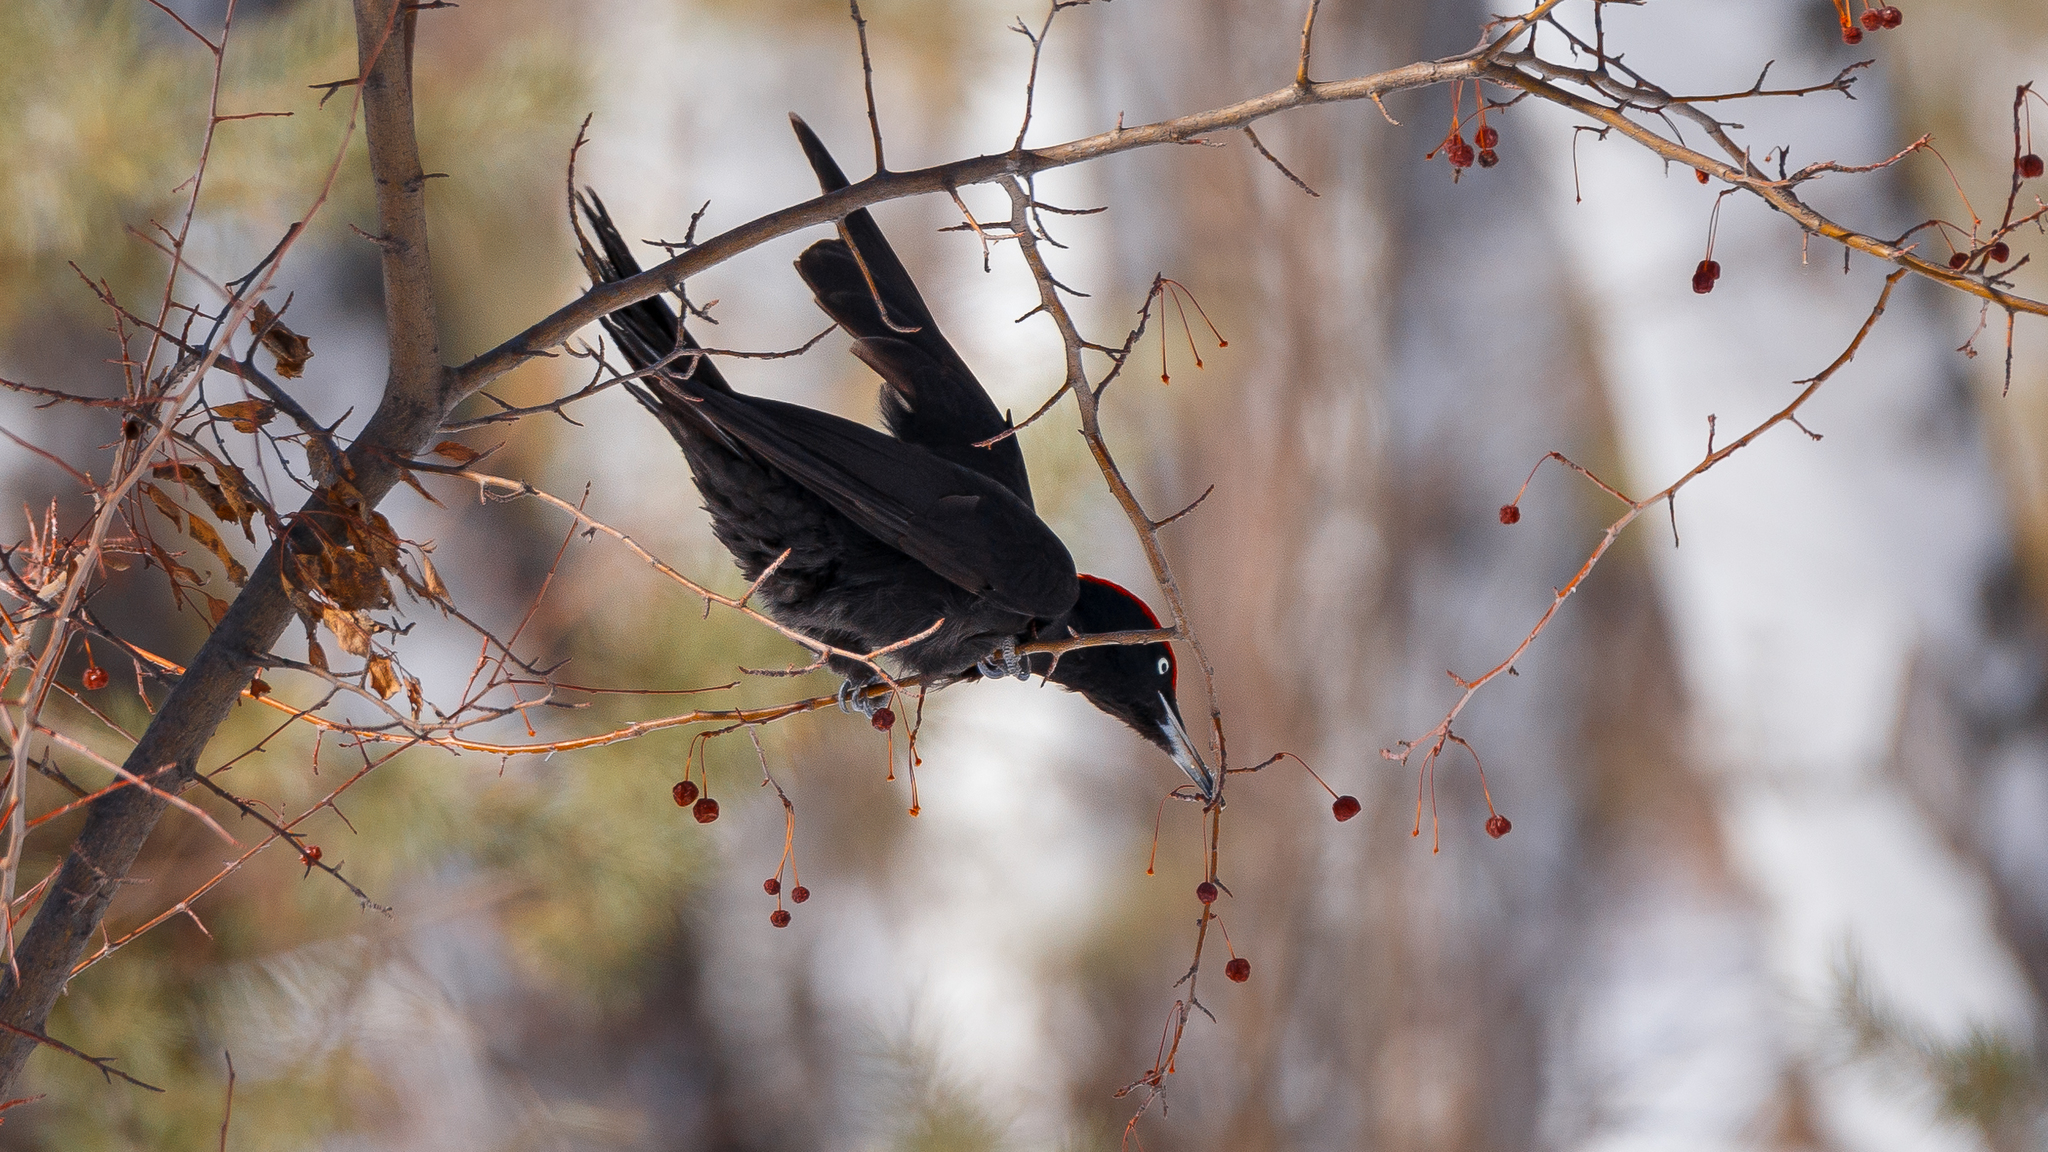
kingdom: Animalia
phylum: Chordata
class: Aves
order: Piciformes
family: Picidae
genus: Dryocopus
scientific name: Dryocopus martius
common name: Black woodpecker
